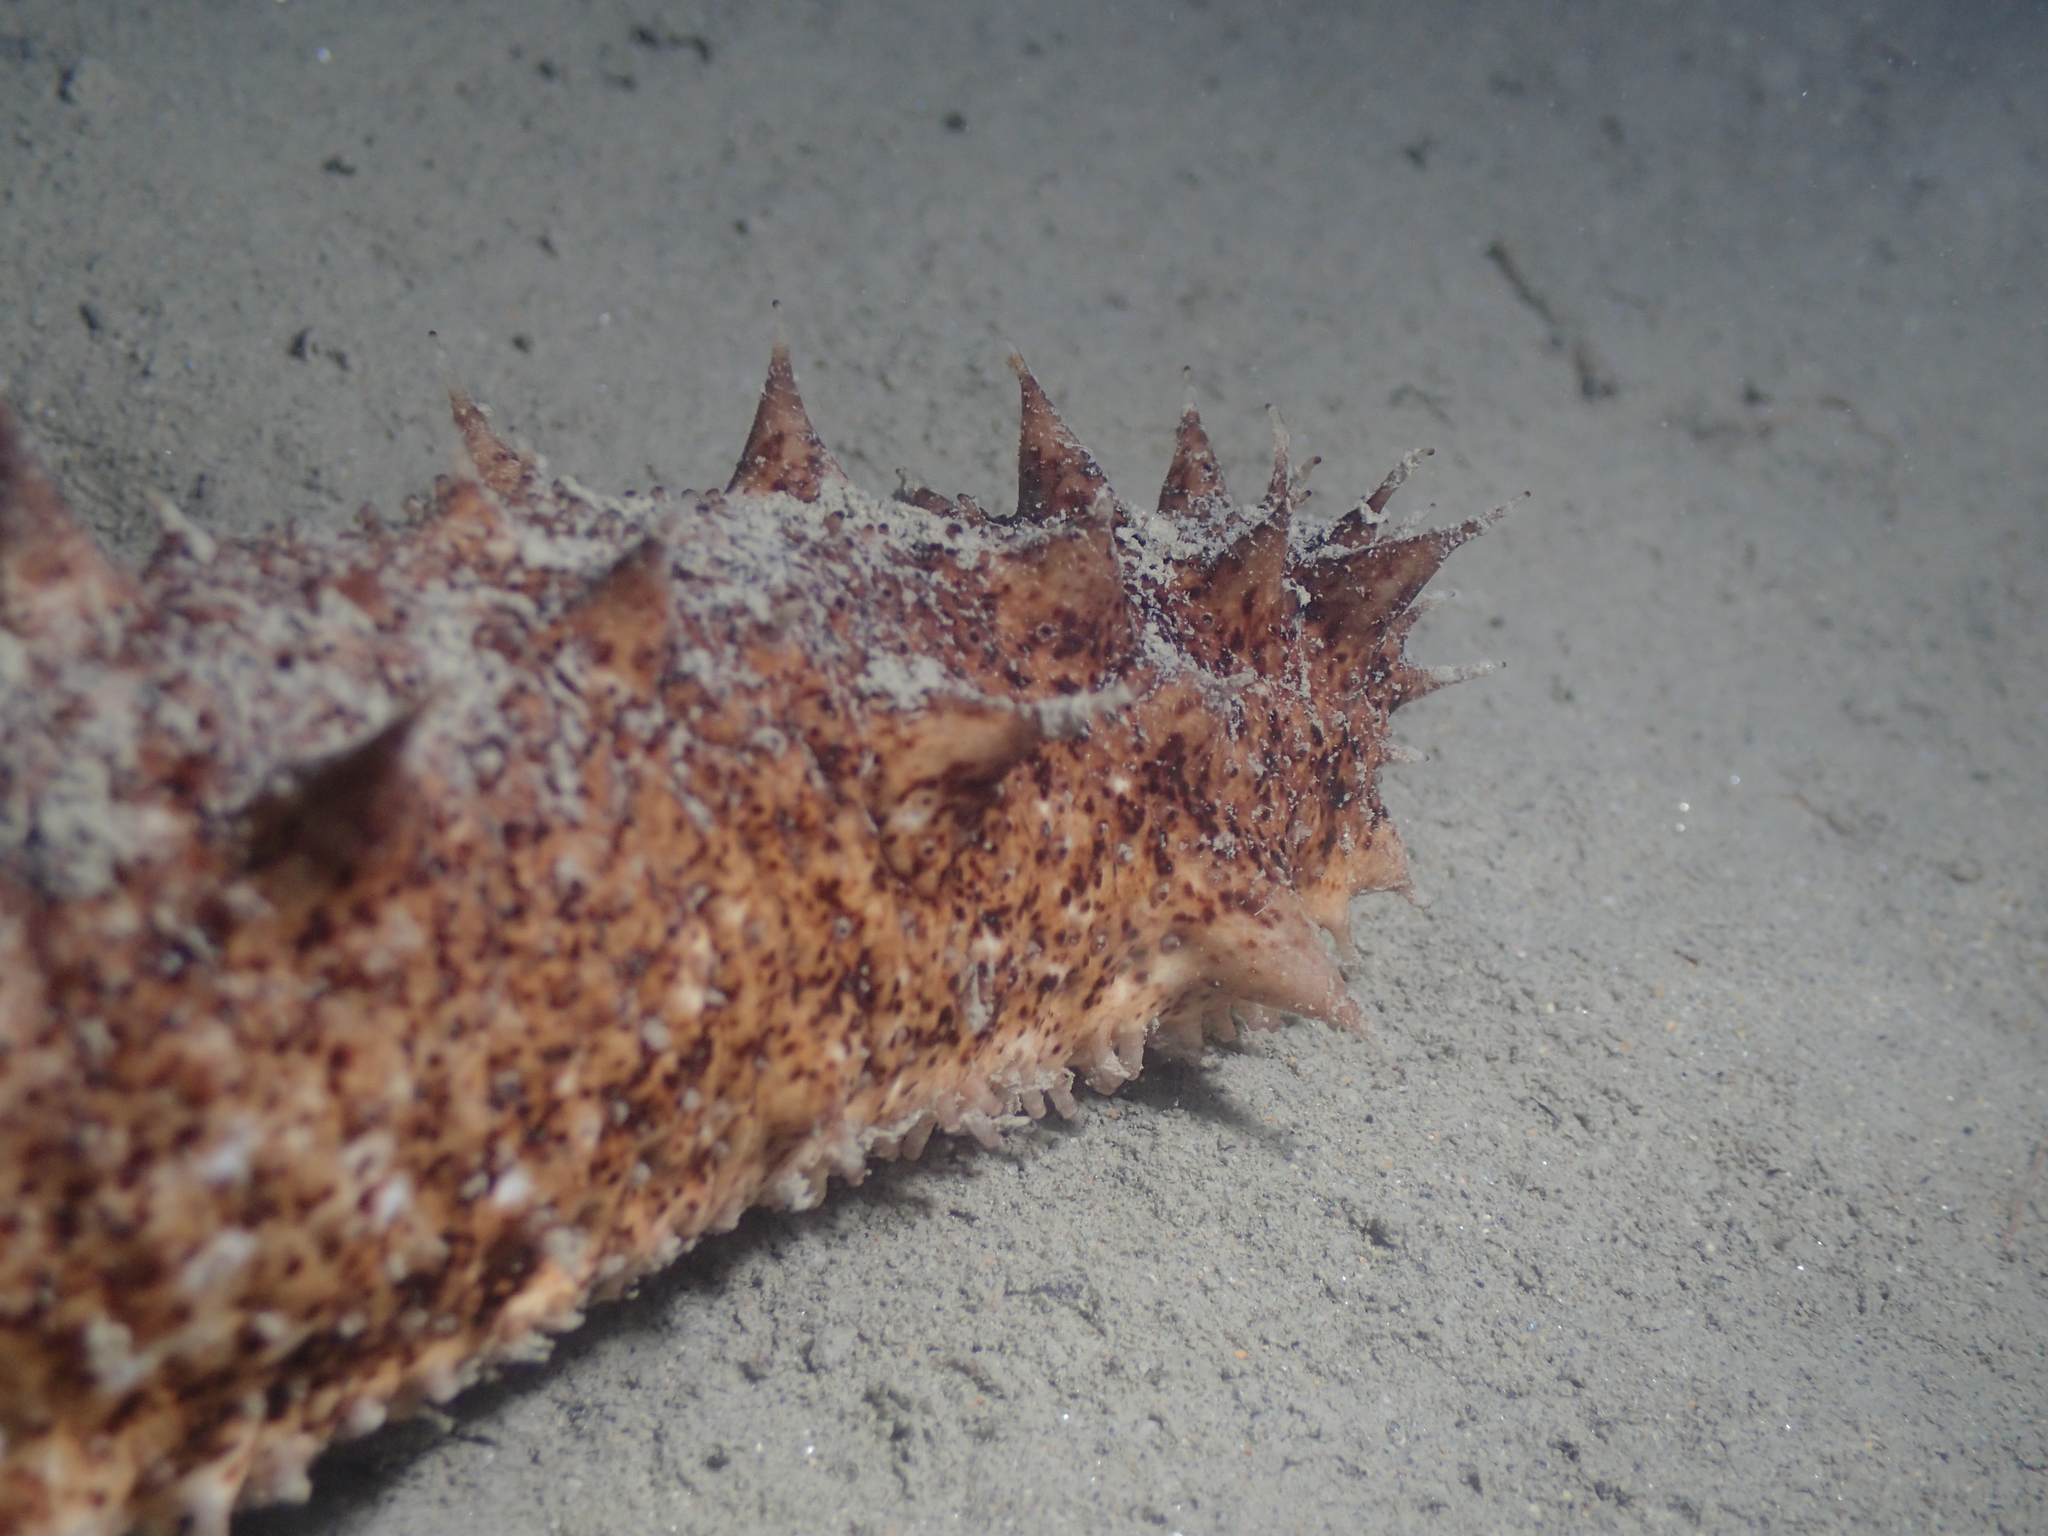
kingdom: Animalia
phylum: Echinodermata
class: Holothuroidea
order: Holothuriida
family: Holothuriidae
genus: Holothuria
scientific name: Holothuria tubulosa
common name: Cotton-spinner
